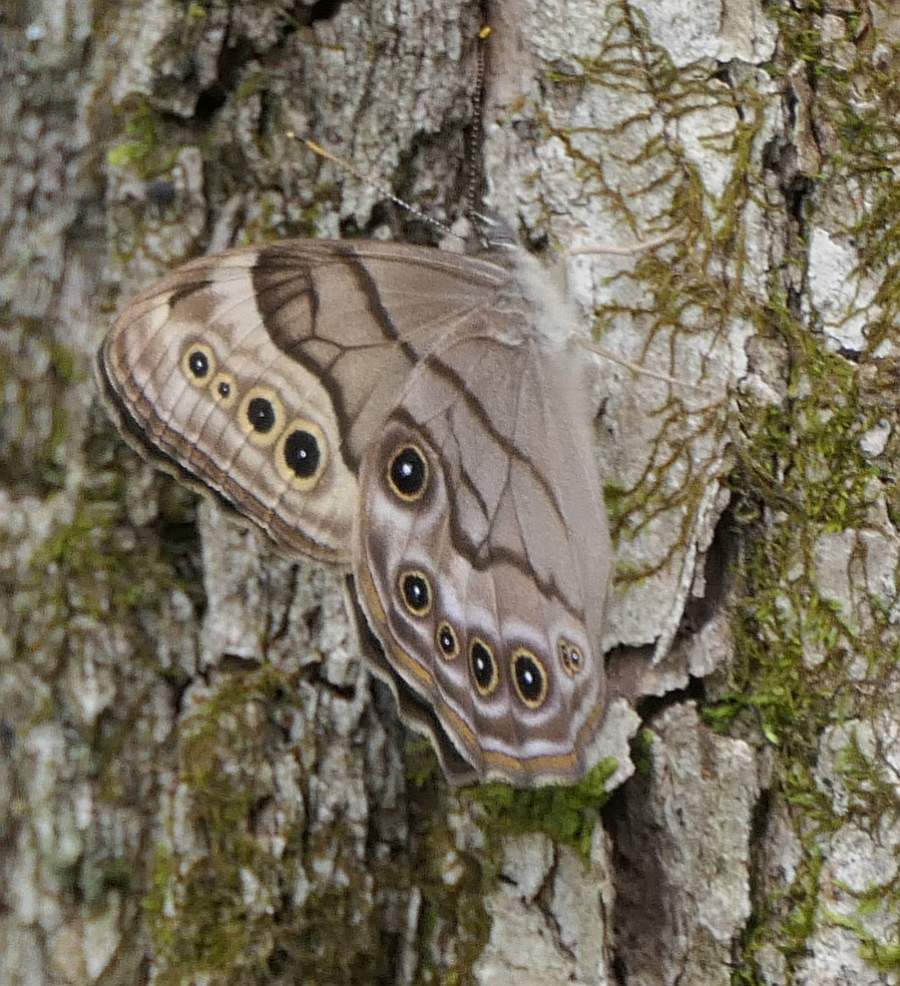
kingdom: Animalia
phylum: Arthropoda
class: Insecta
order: Lepidoptera
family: Nymphalidae
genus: Lethe
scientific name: Lethe anthedon
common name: Northern pearly-eye
